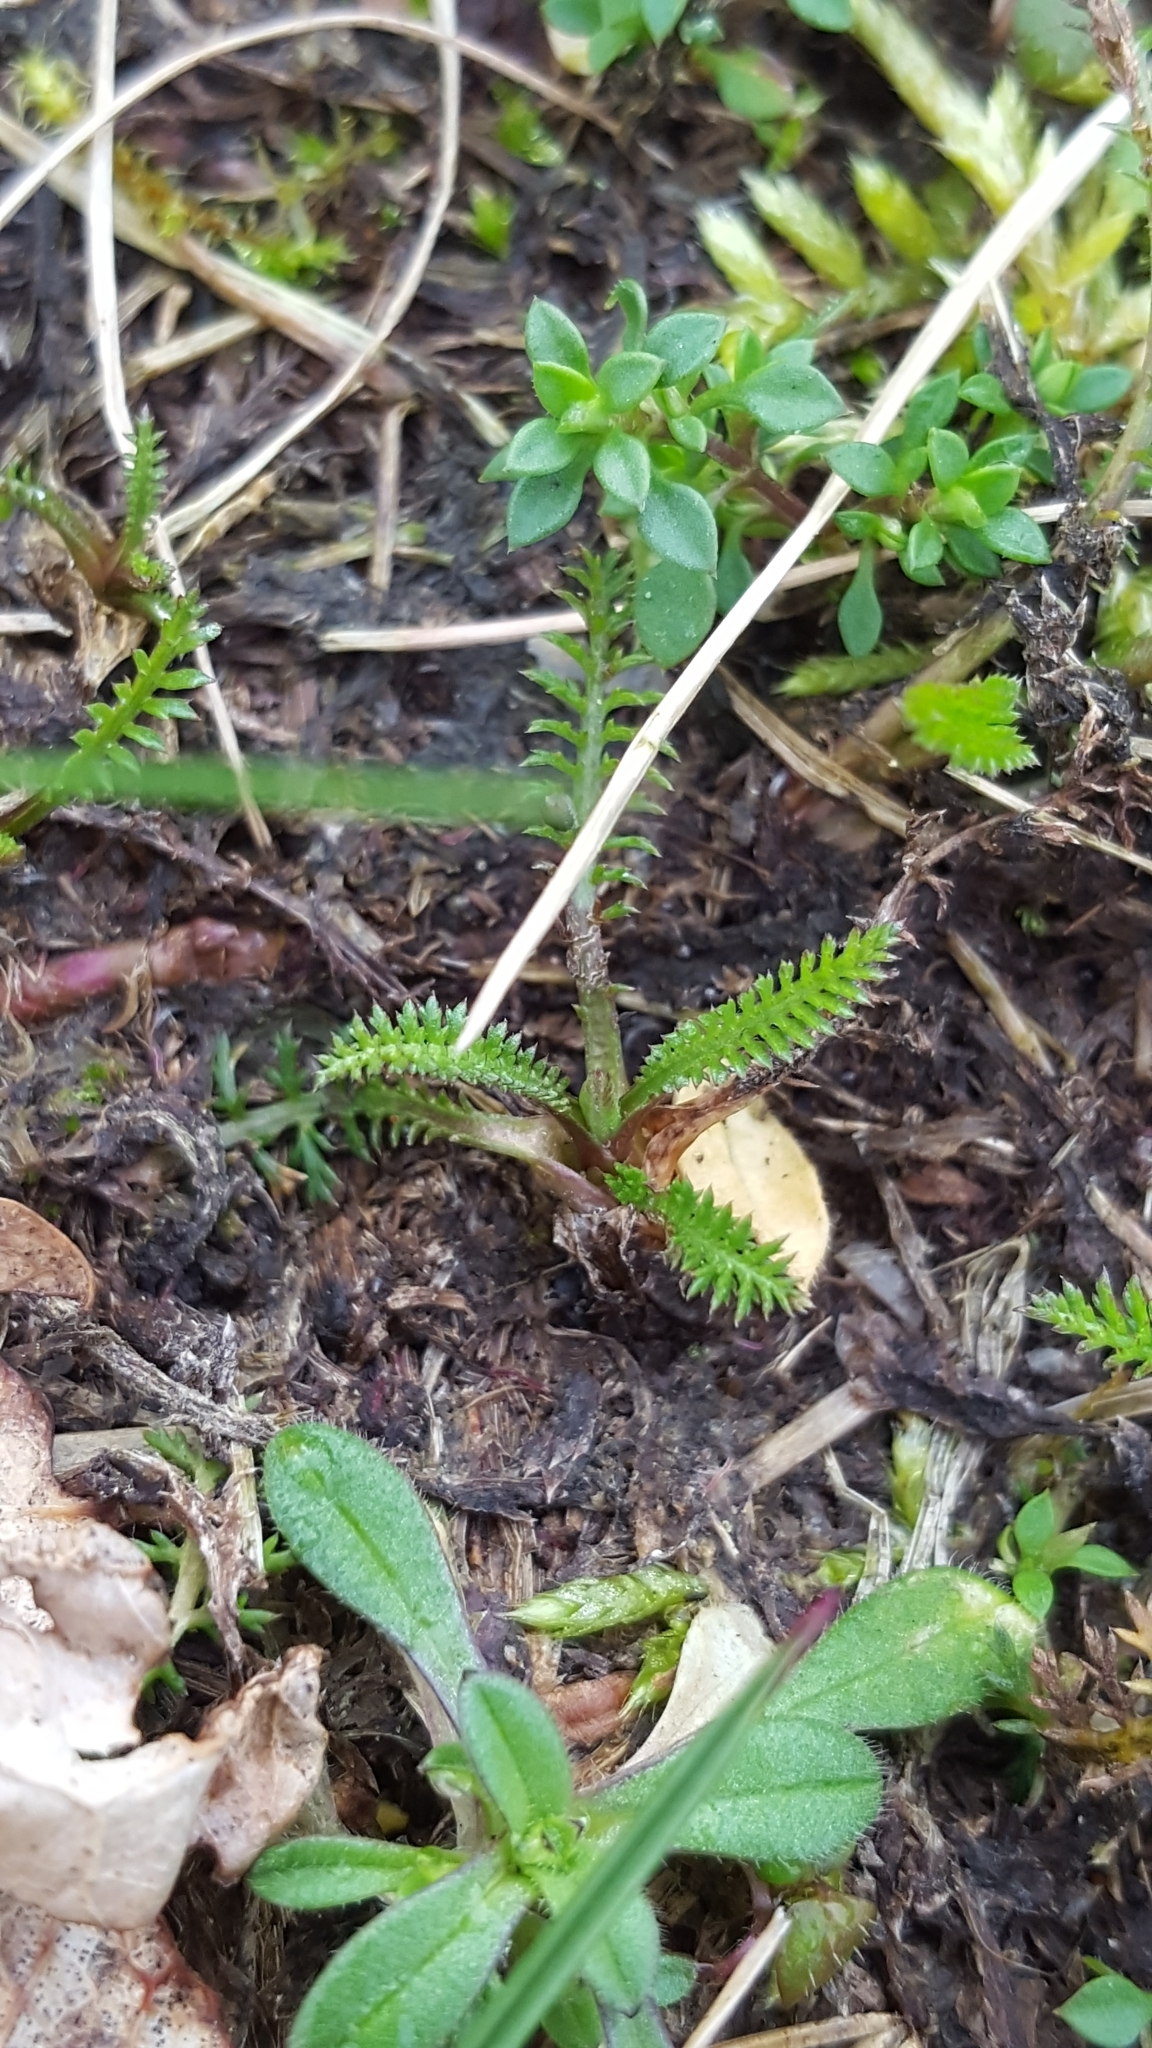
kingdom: Plantae
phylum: Tracheophyta
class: Magnoliopsida
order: Asterales
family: Asteraceae
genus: Achillea
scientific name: Achillea millefolium
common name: Yarrow
